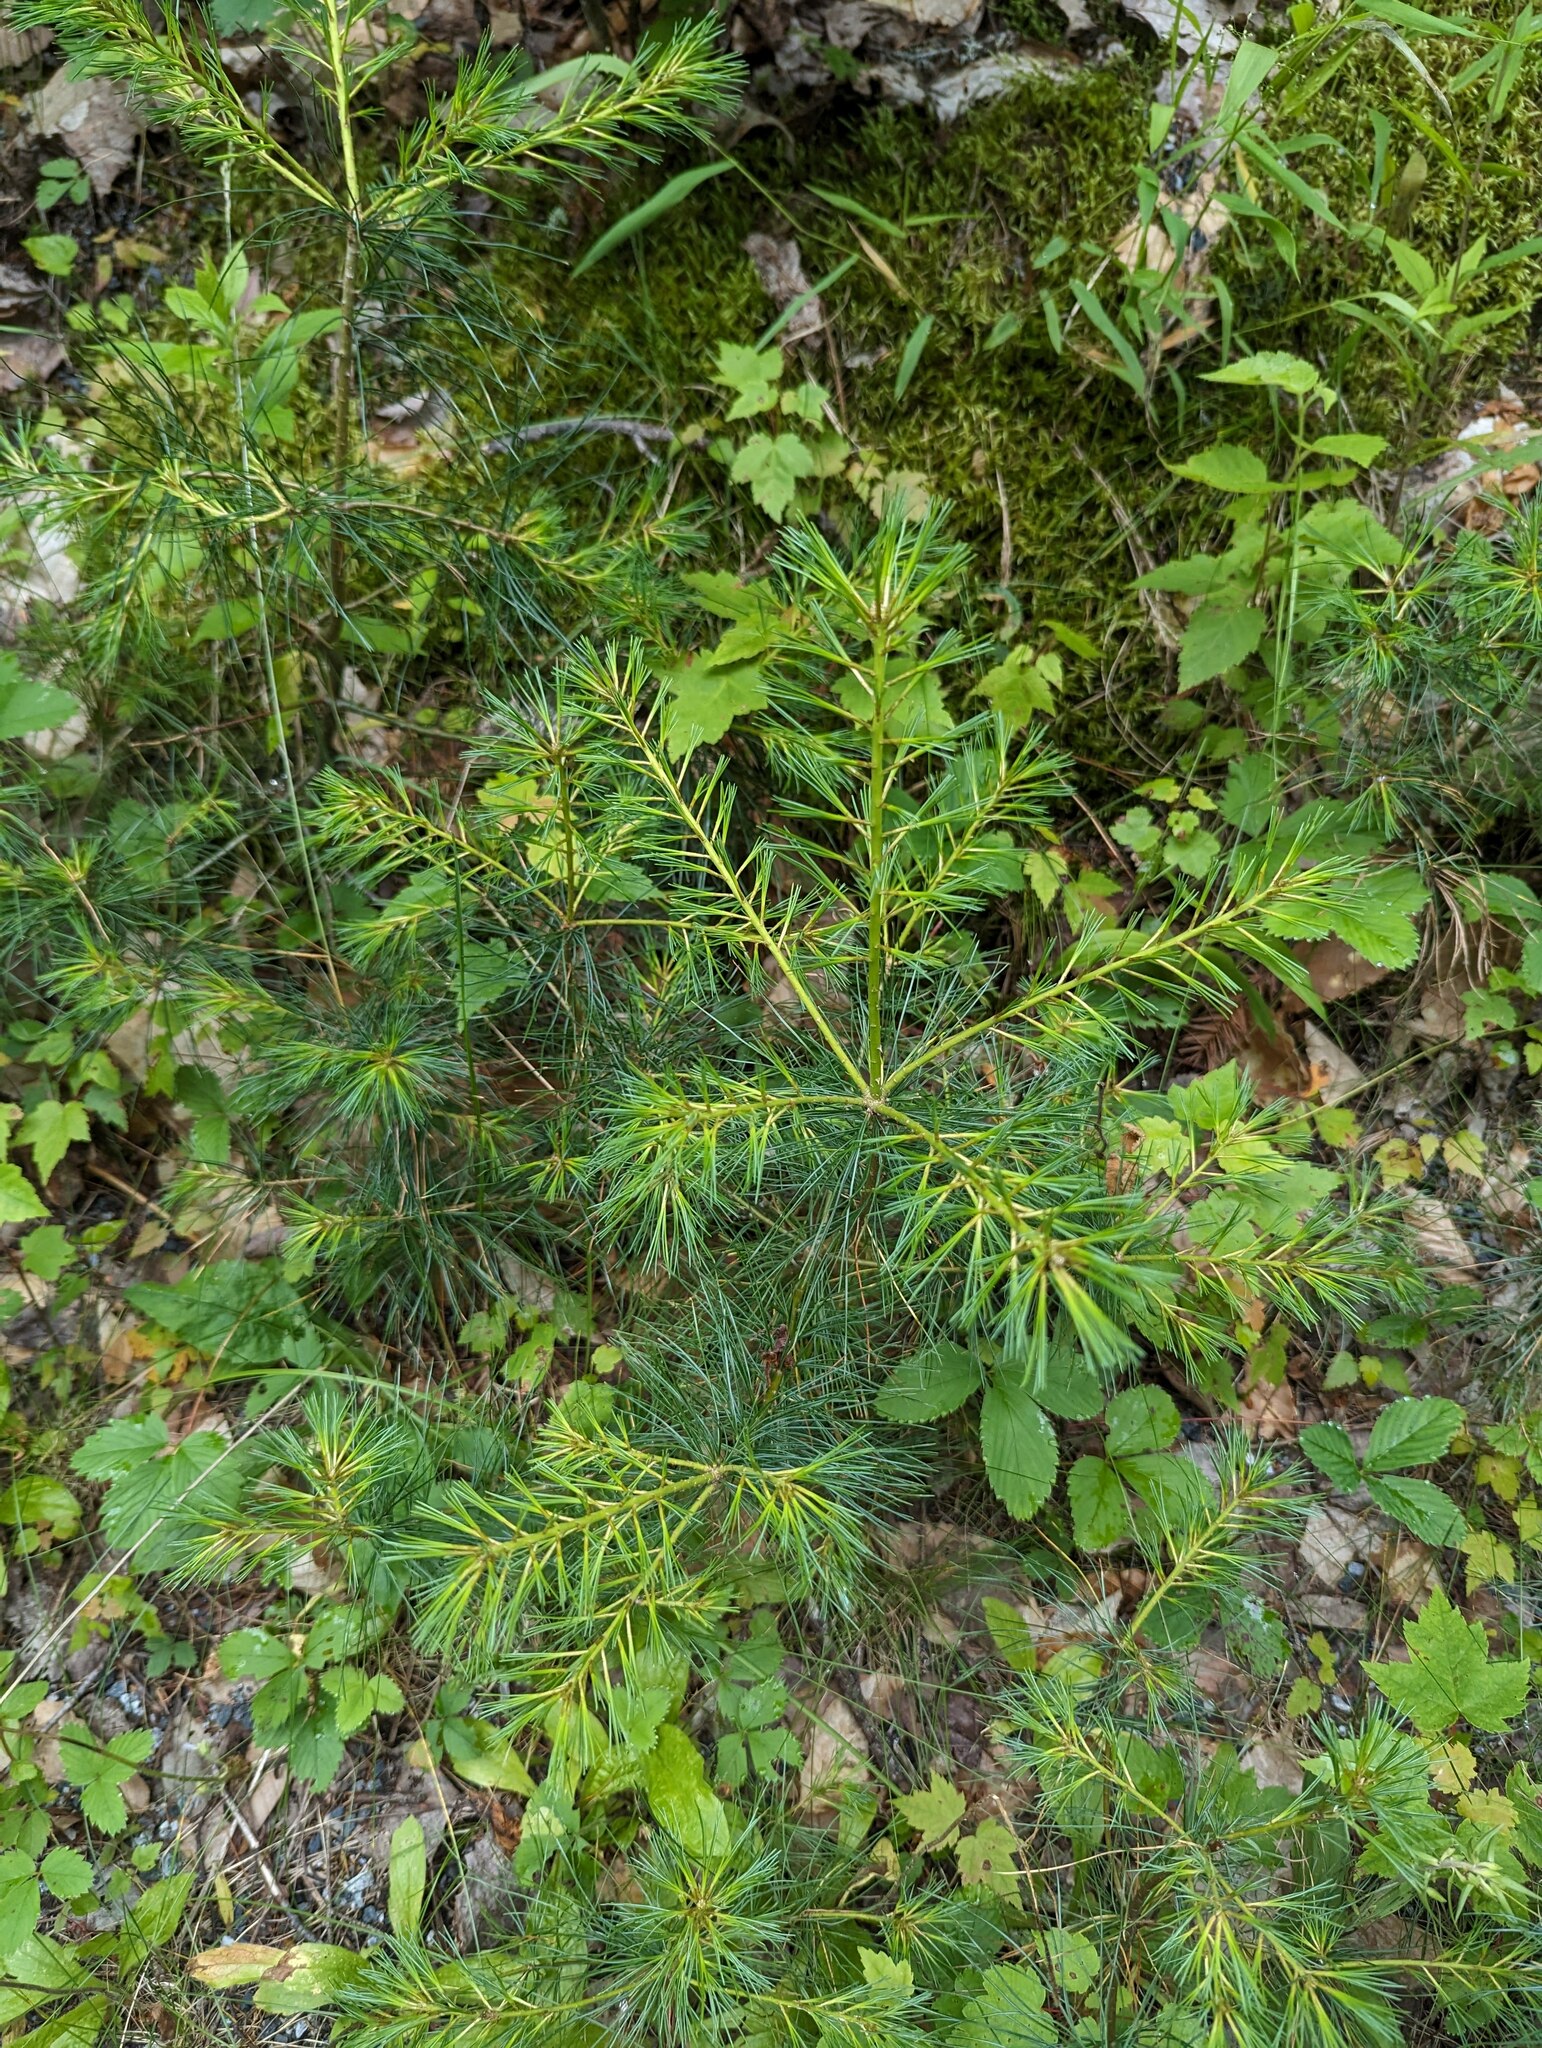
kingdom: Plantae
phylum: Tracheophyta
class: Pinopsida
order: Pinales
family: Pinaceae
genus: Pinus
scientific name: Pinus strobus
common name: Weymouth pine
